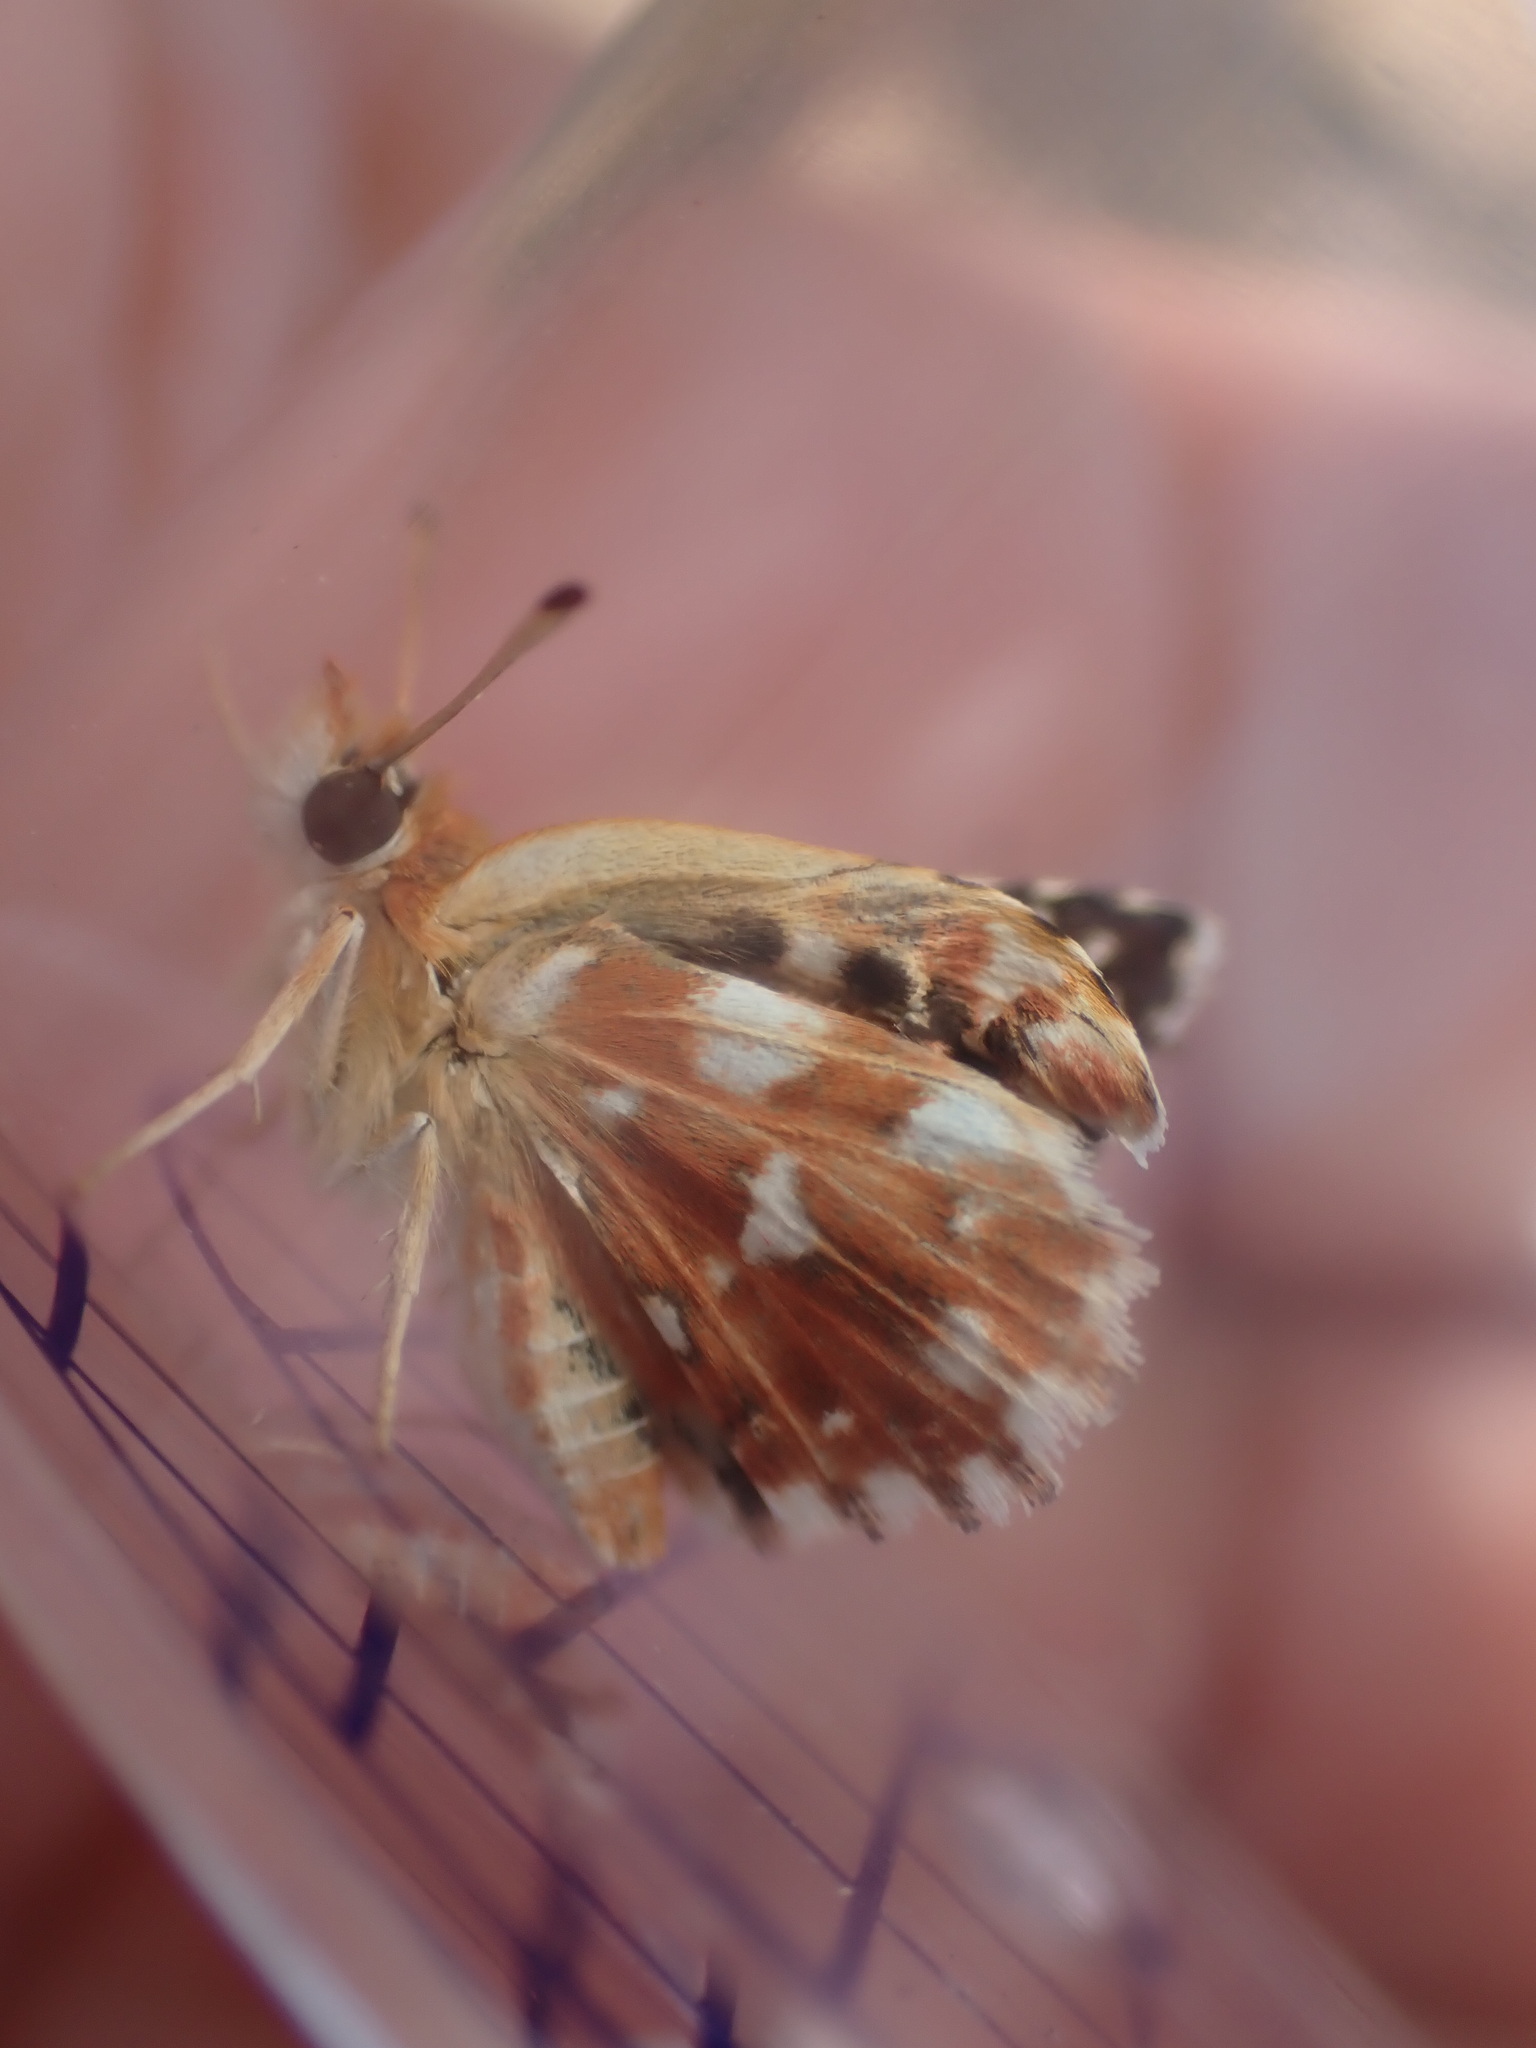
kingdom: Animalia
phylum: Arthropoda
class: Insecta
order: Lepidoptera
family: Hesperiidae
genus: Spialia
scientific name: Spialia sertorius
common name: Red underwing skipper
